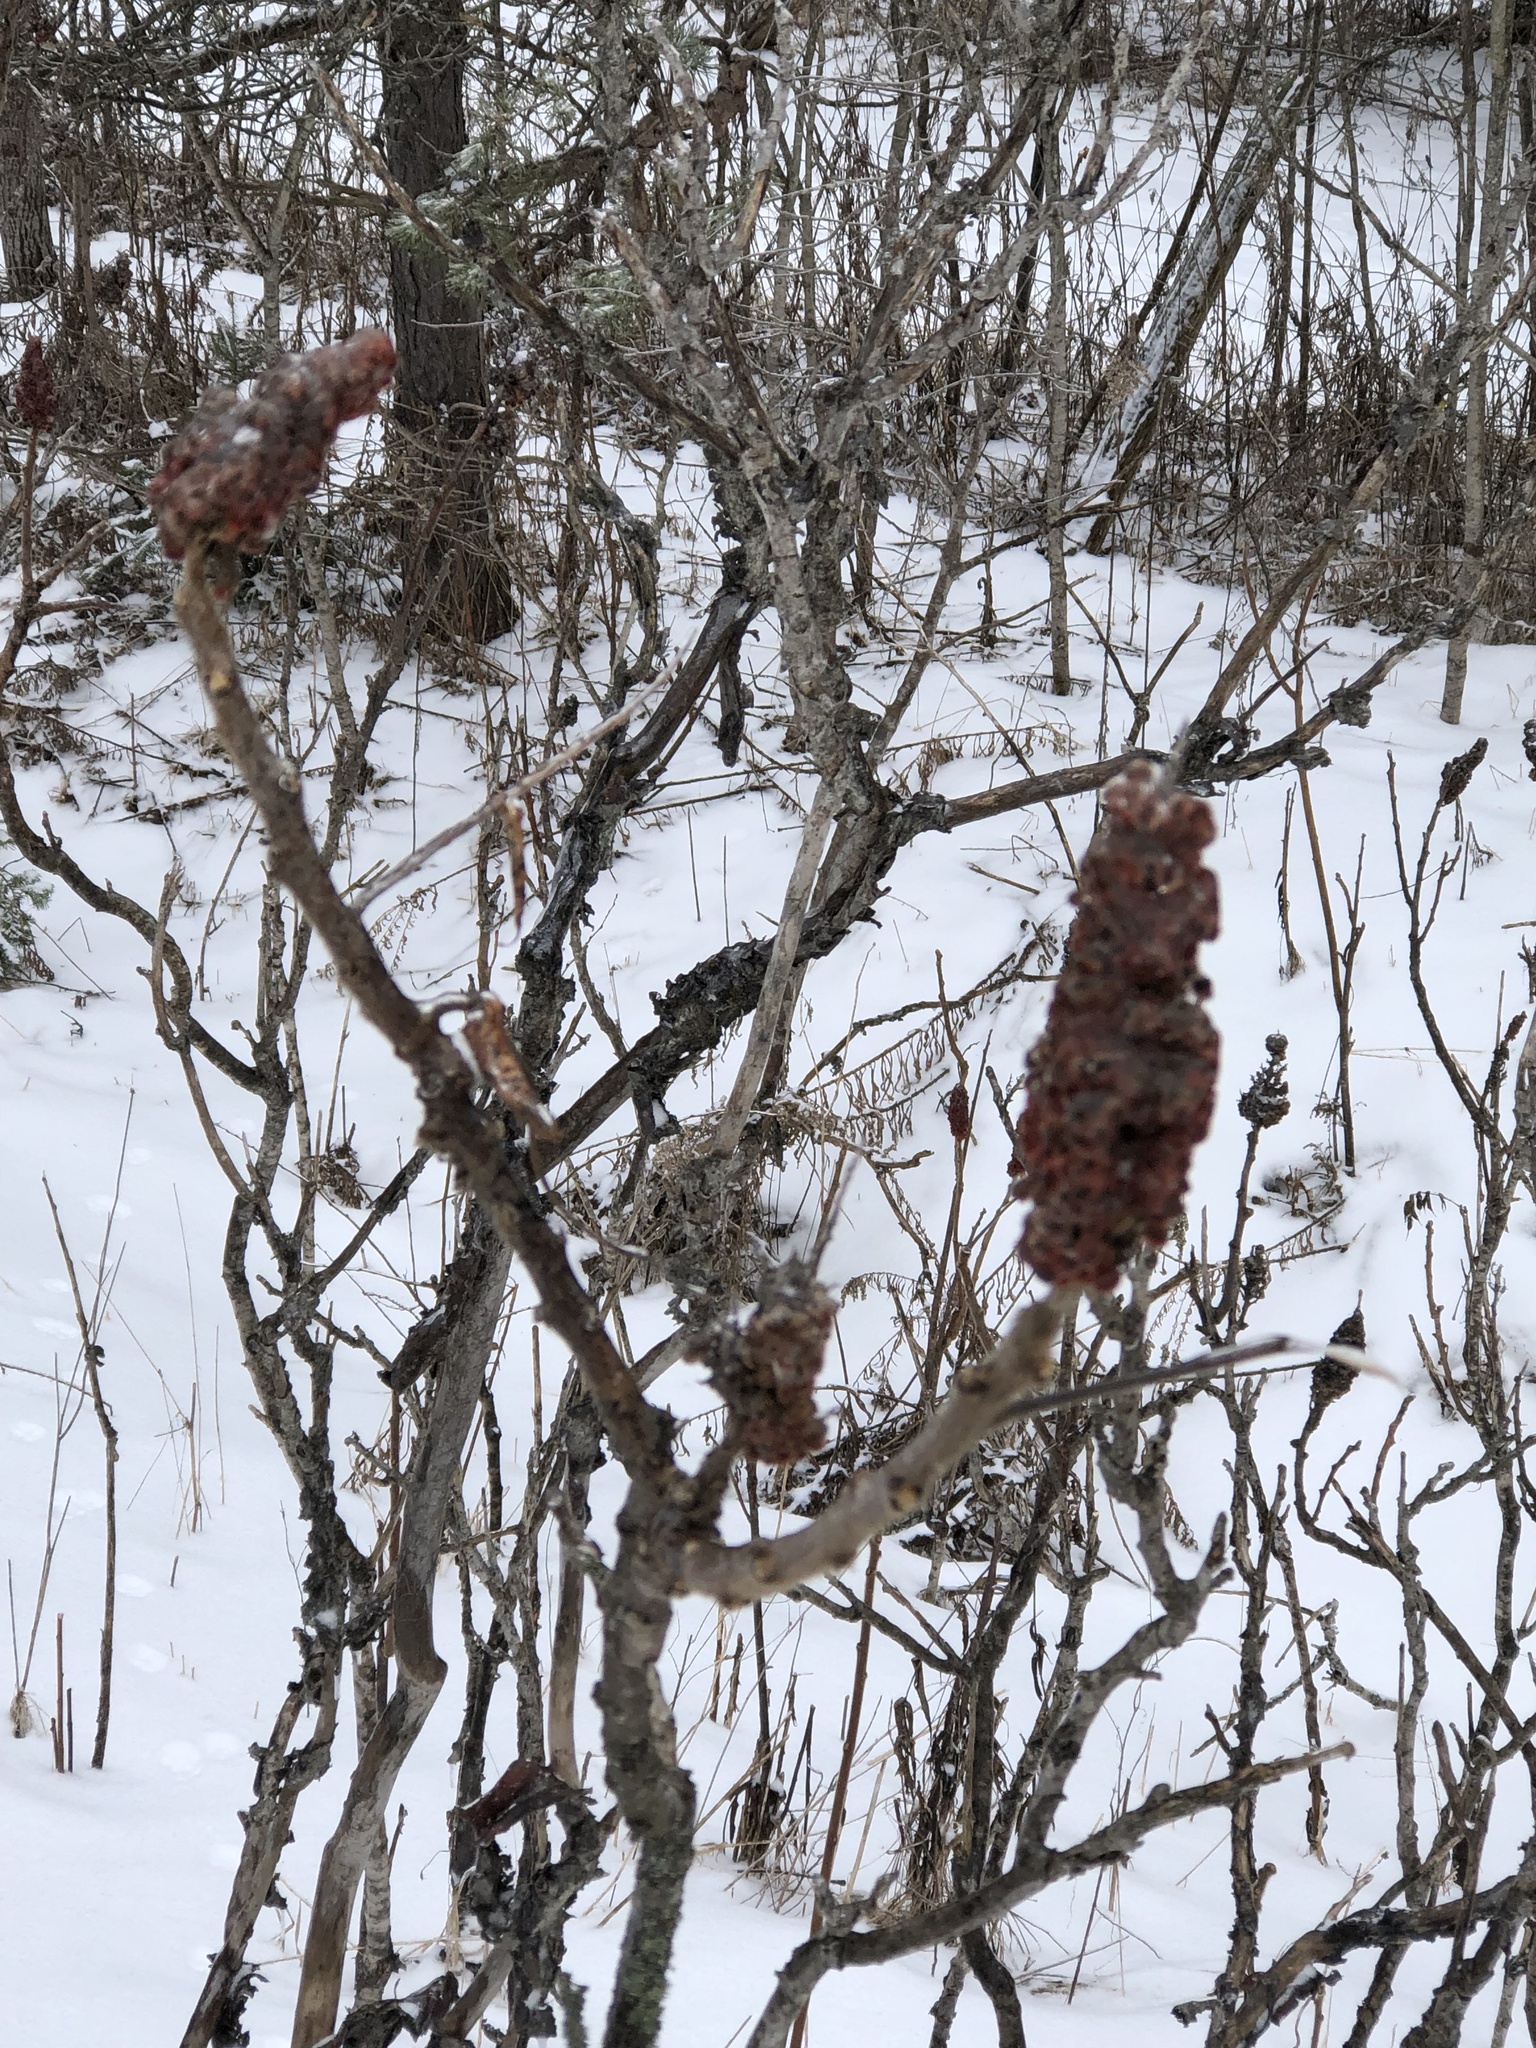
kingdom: Plantae
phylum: Tracheophyta
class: Magnoliopsida
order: Sapindales
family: Anacardiaceae
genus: Rhus
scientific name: Rhus typhina
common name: Staghorn sumac
